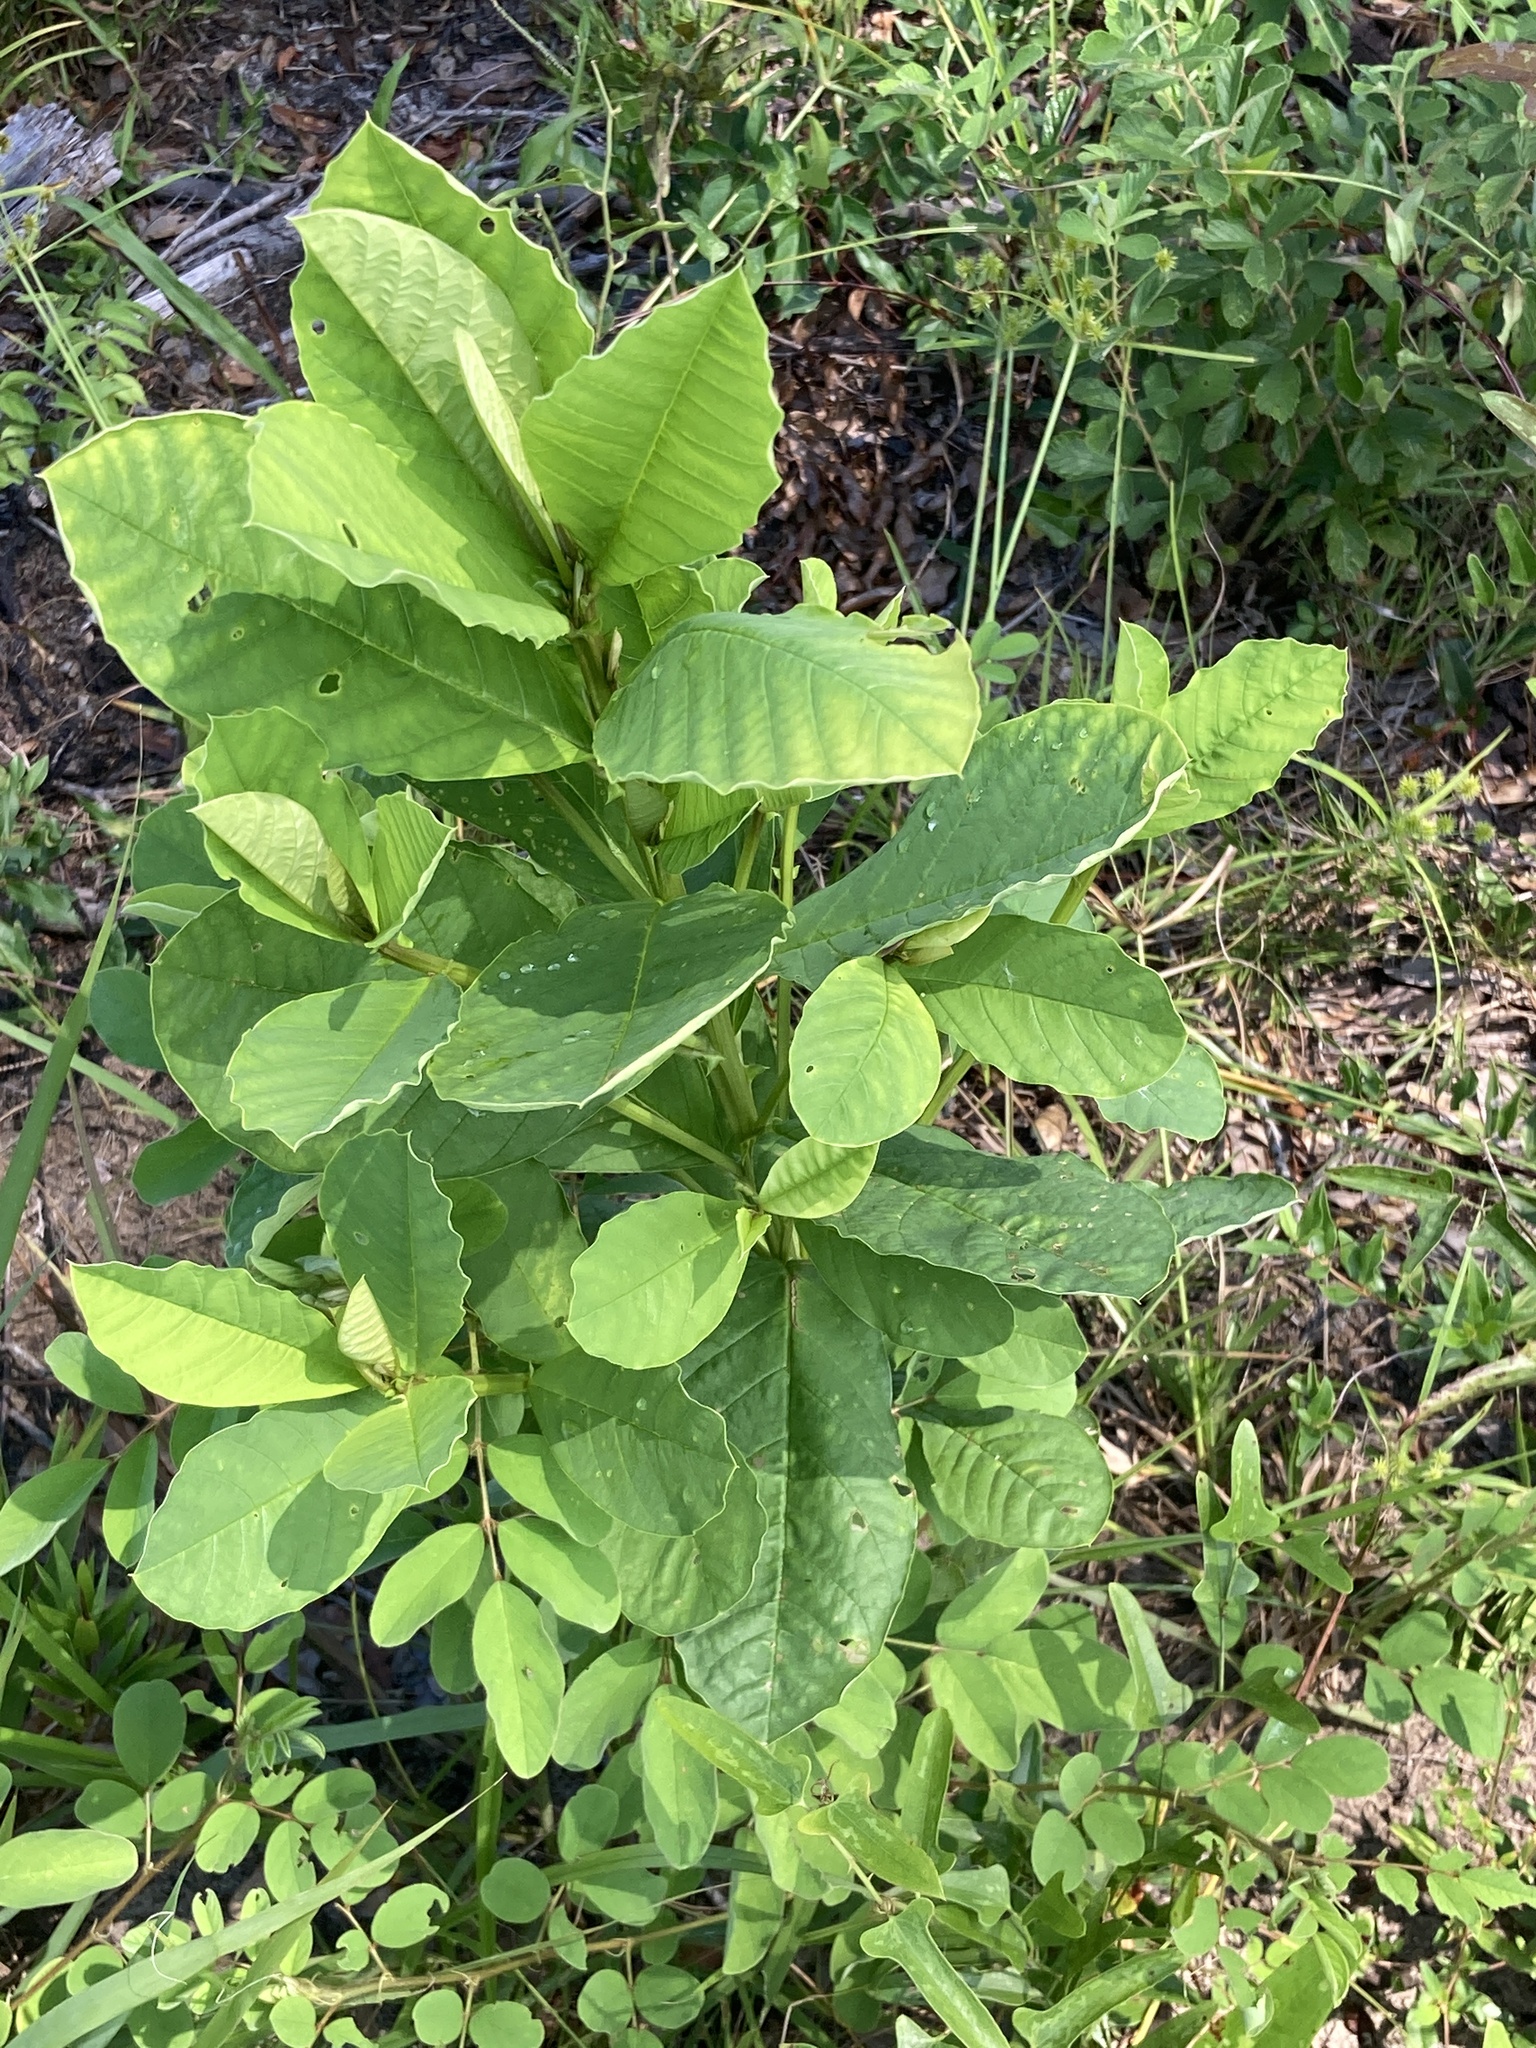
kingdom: Plantae
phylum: Tracheophyta
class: Magnoliopsida
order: Fabales
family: Fabaceae
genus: Crotalaria
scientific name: Crotalaria spectabilis
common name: Showy rattlebox
